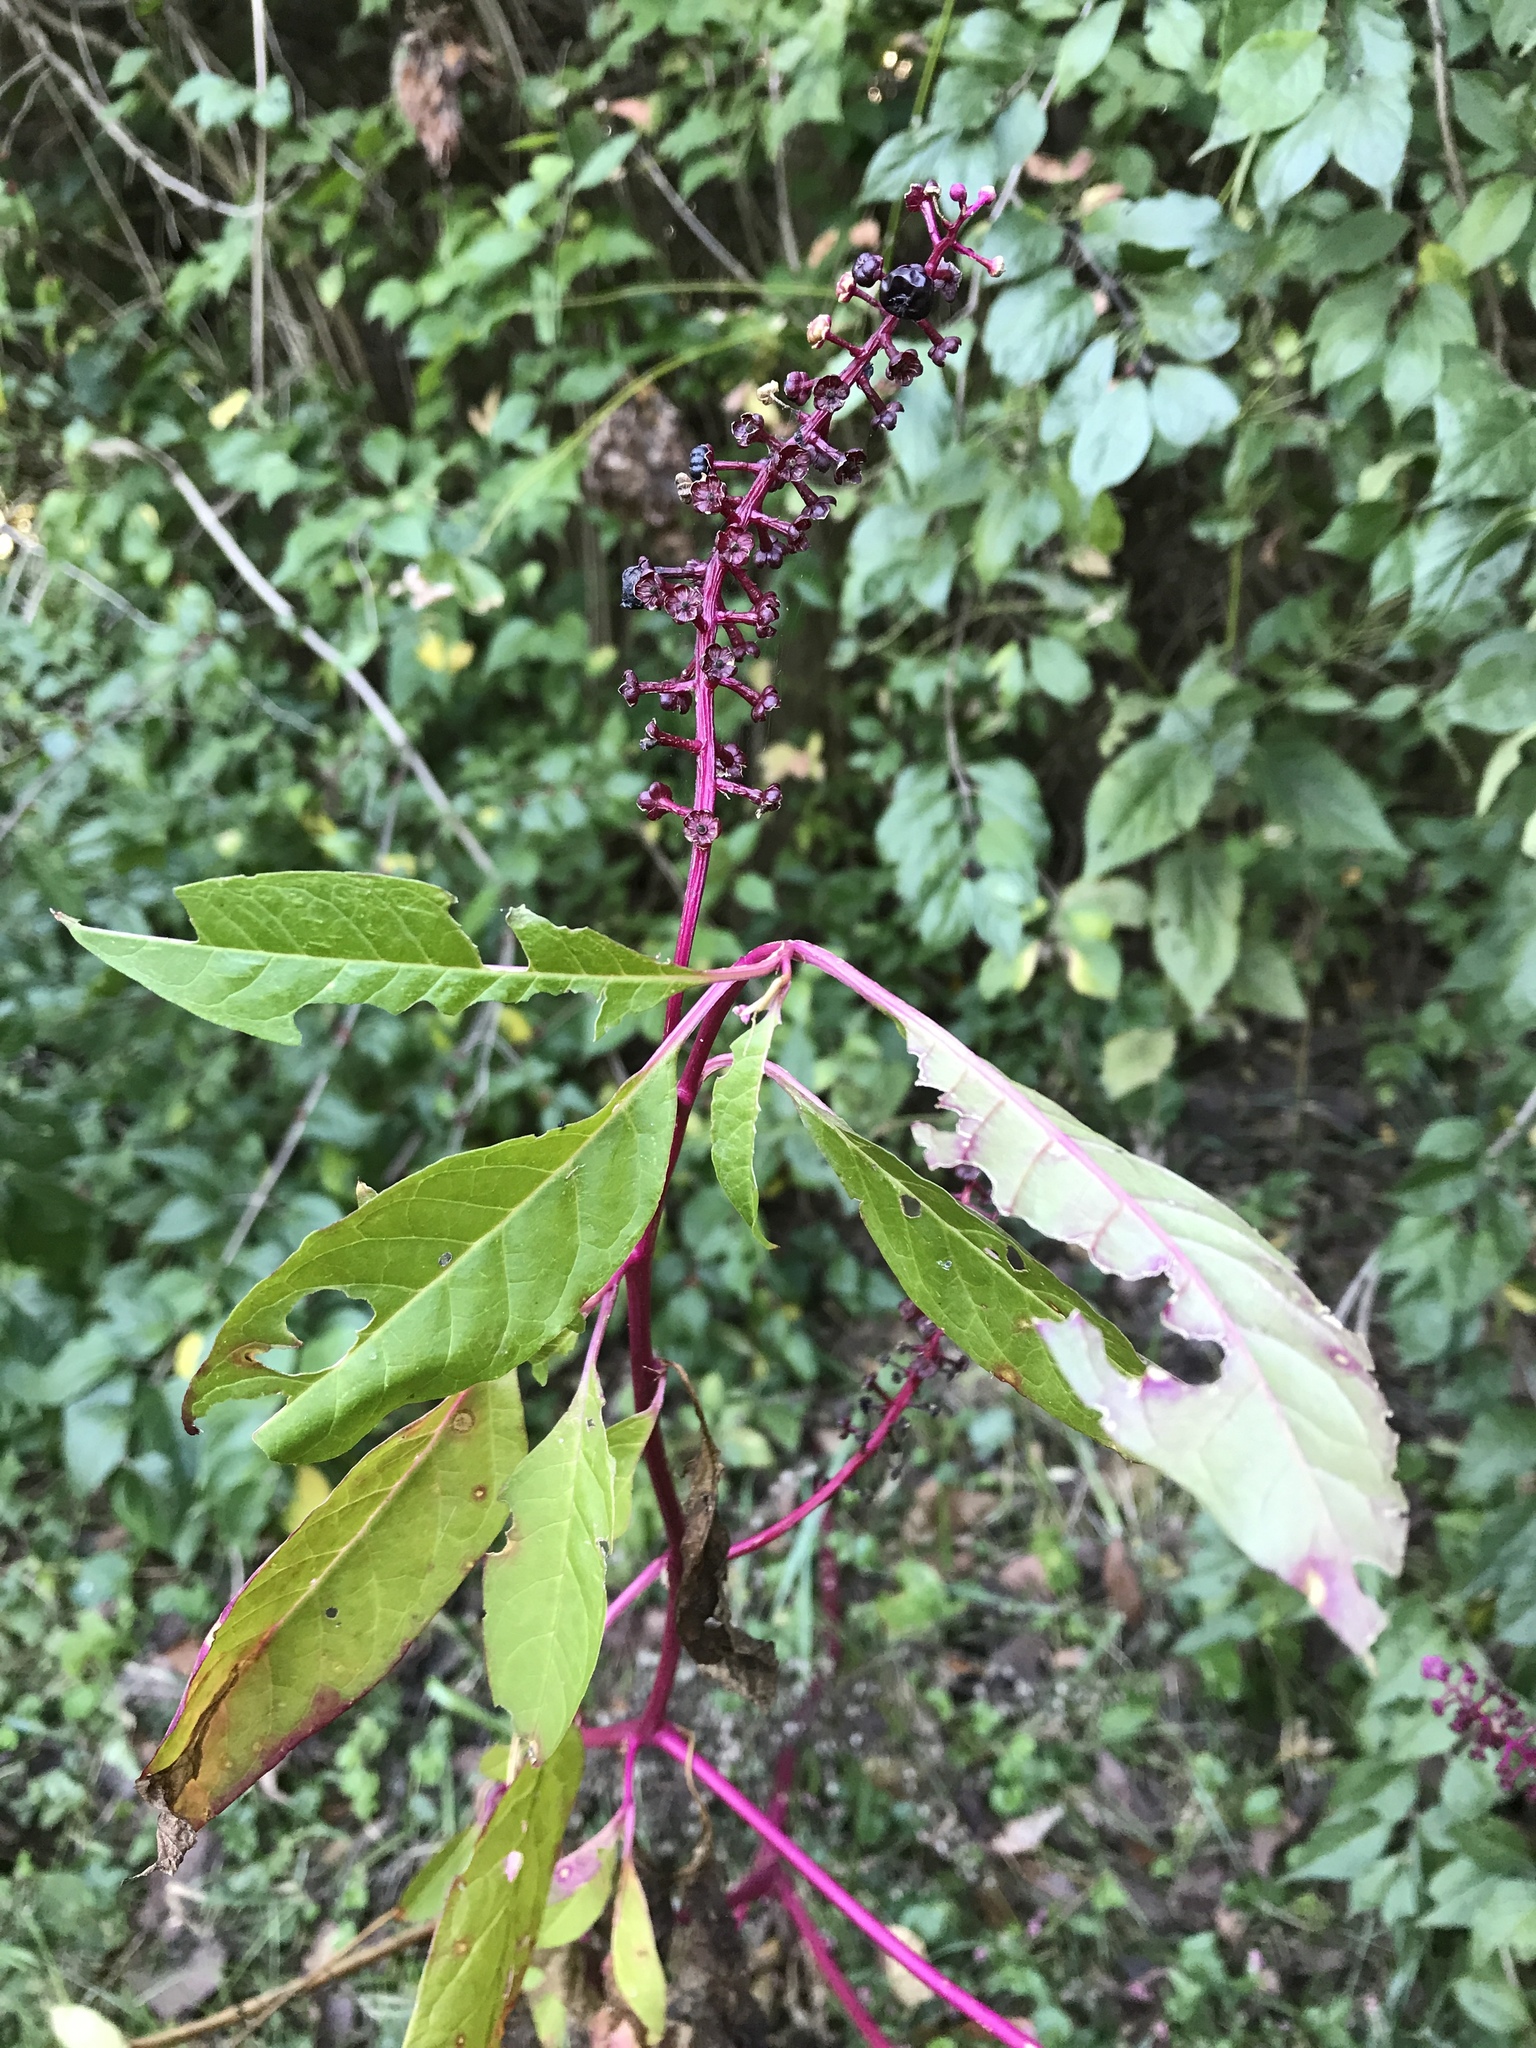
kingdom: Plantae
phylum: Tracheophyta
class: Magnoliopsida
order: Caryophyllales
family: Phytolaccaceae
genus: Phytolacca
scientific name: Phytolacca americana
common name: American pokeweed
